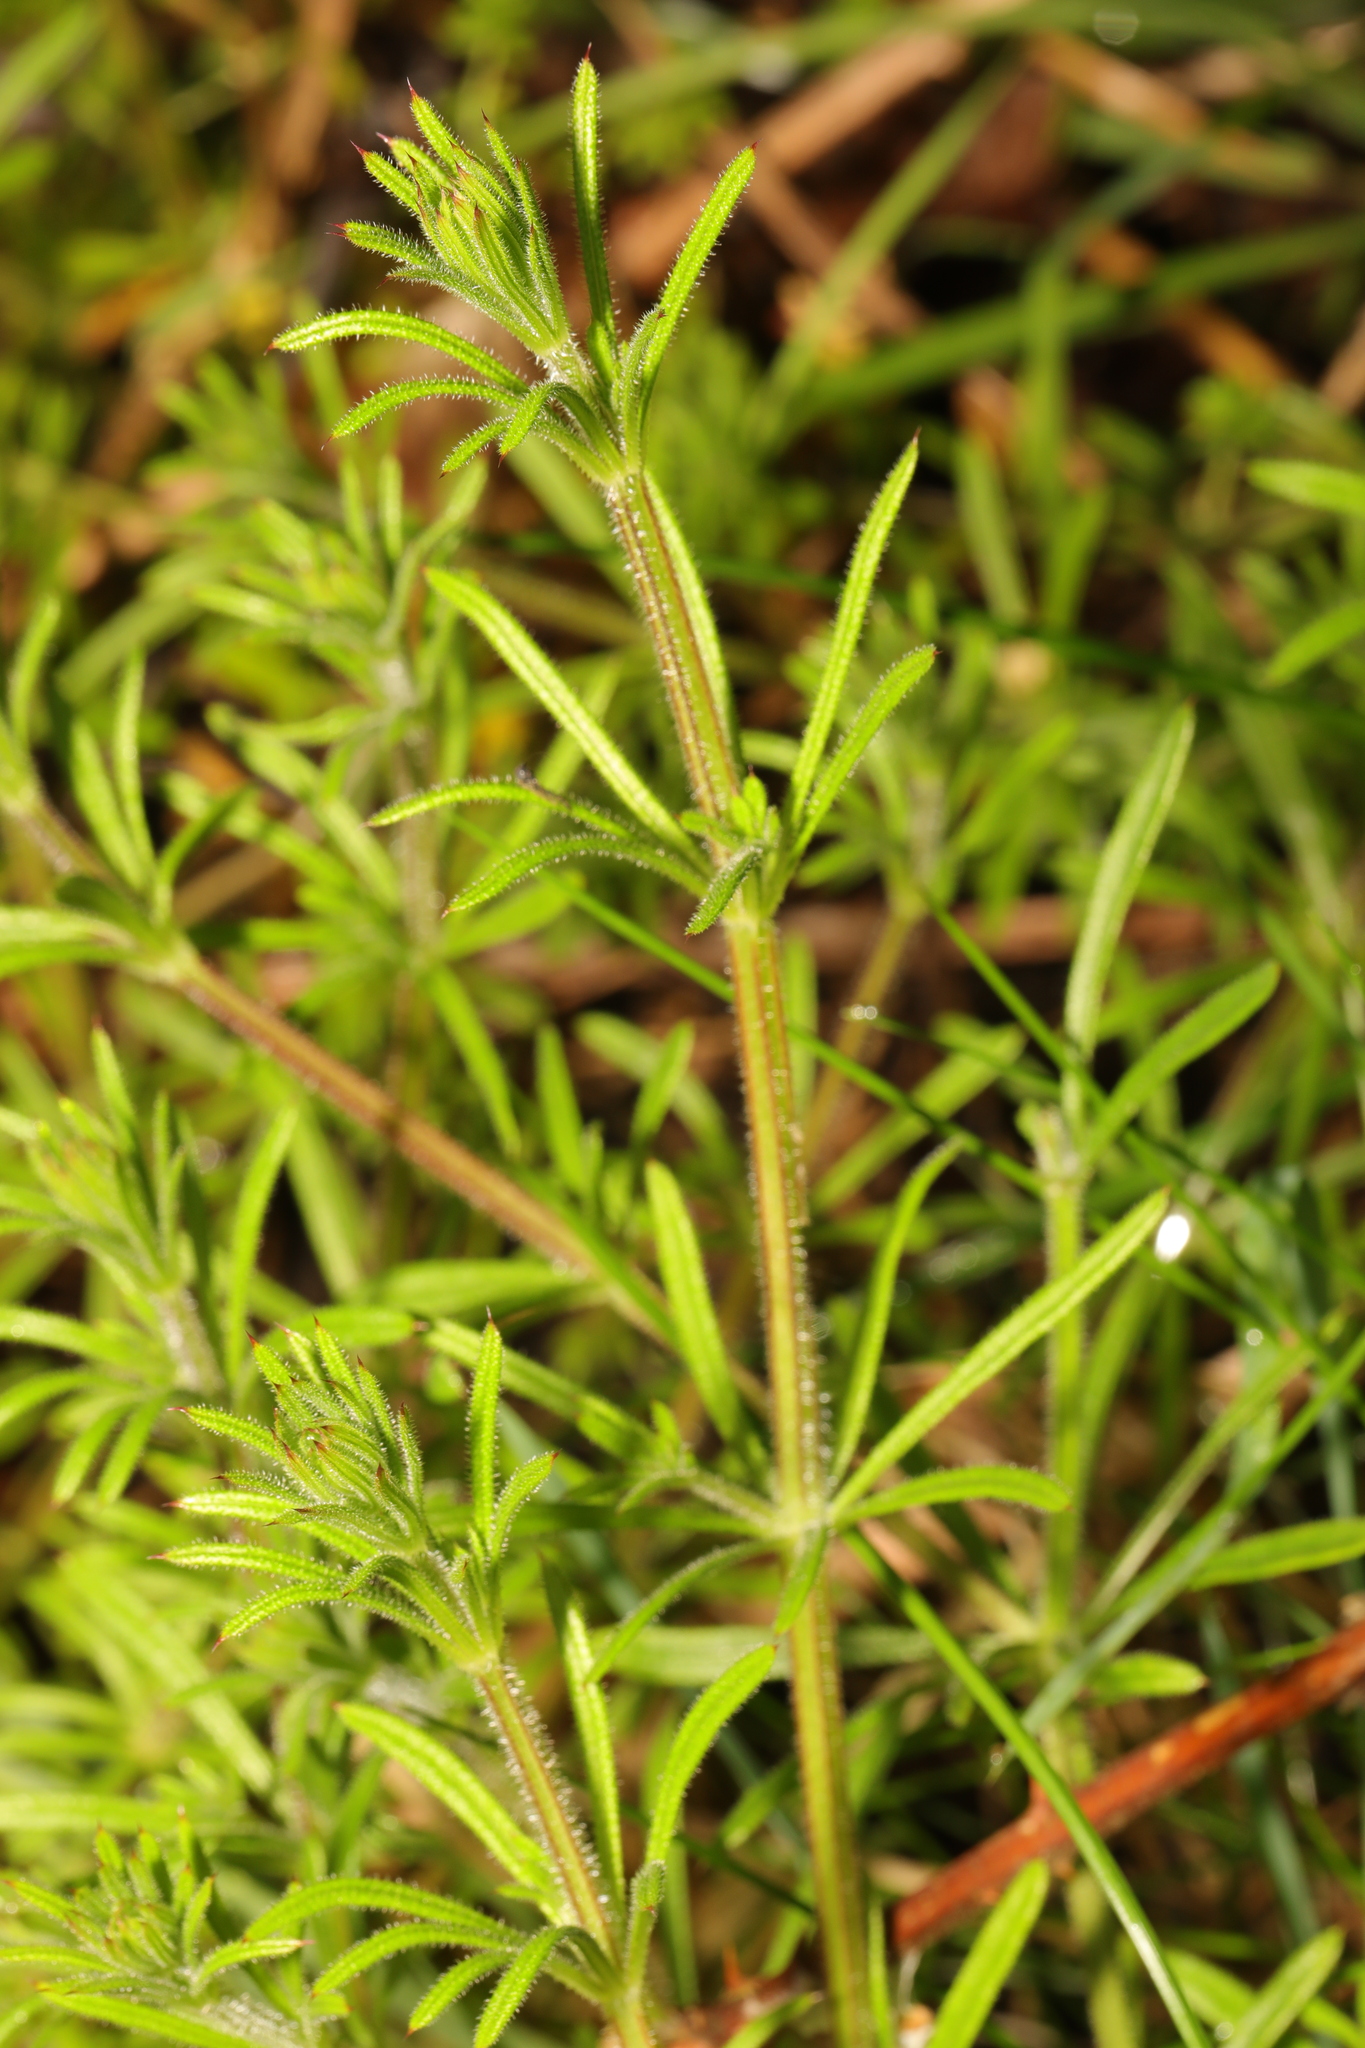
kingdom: Plantae
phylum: Tracheophyta
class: Magnoliopsida
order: Gentianales
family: Rubiaceae
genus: Galium
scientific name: Galium aparine
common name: Cleavers
